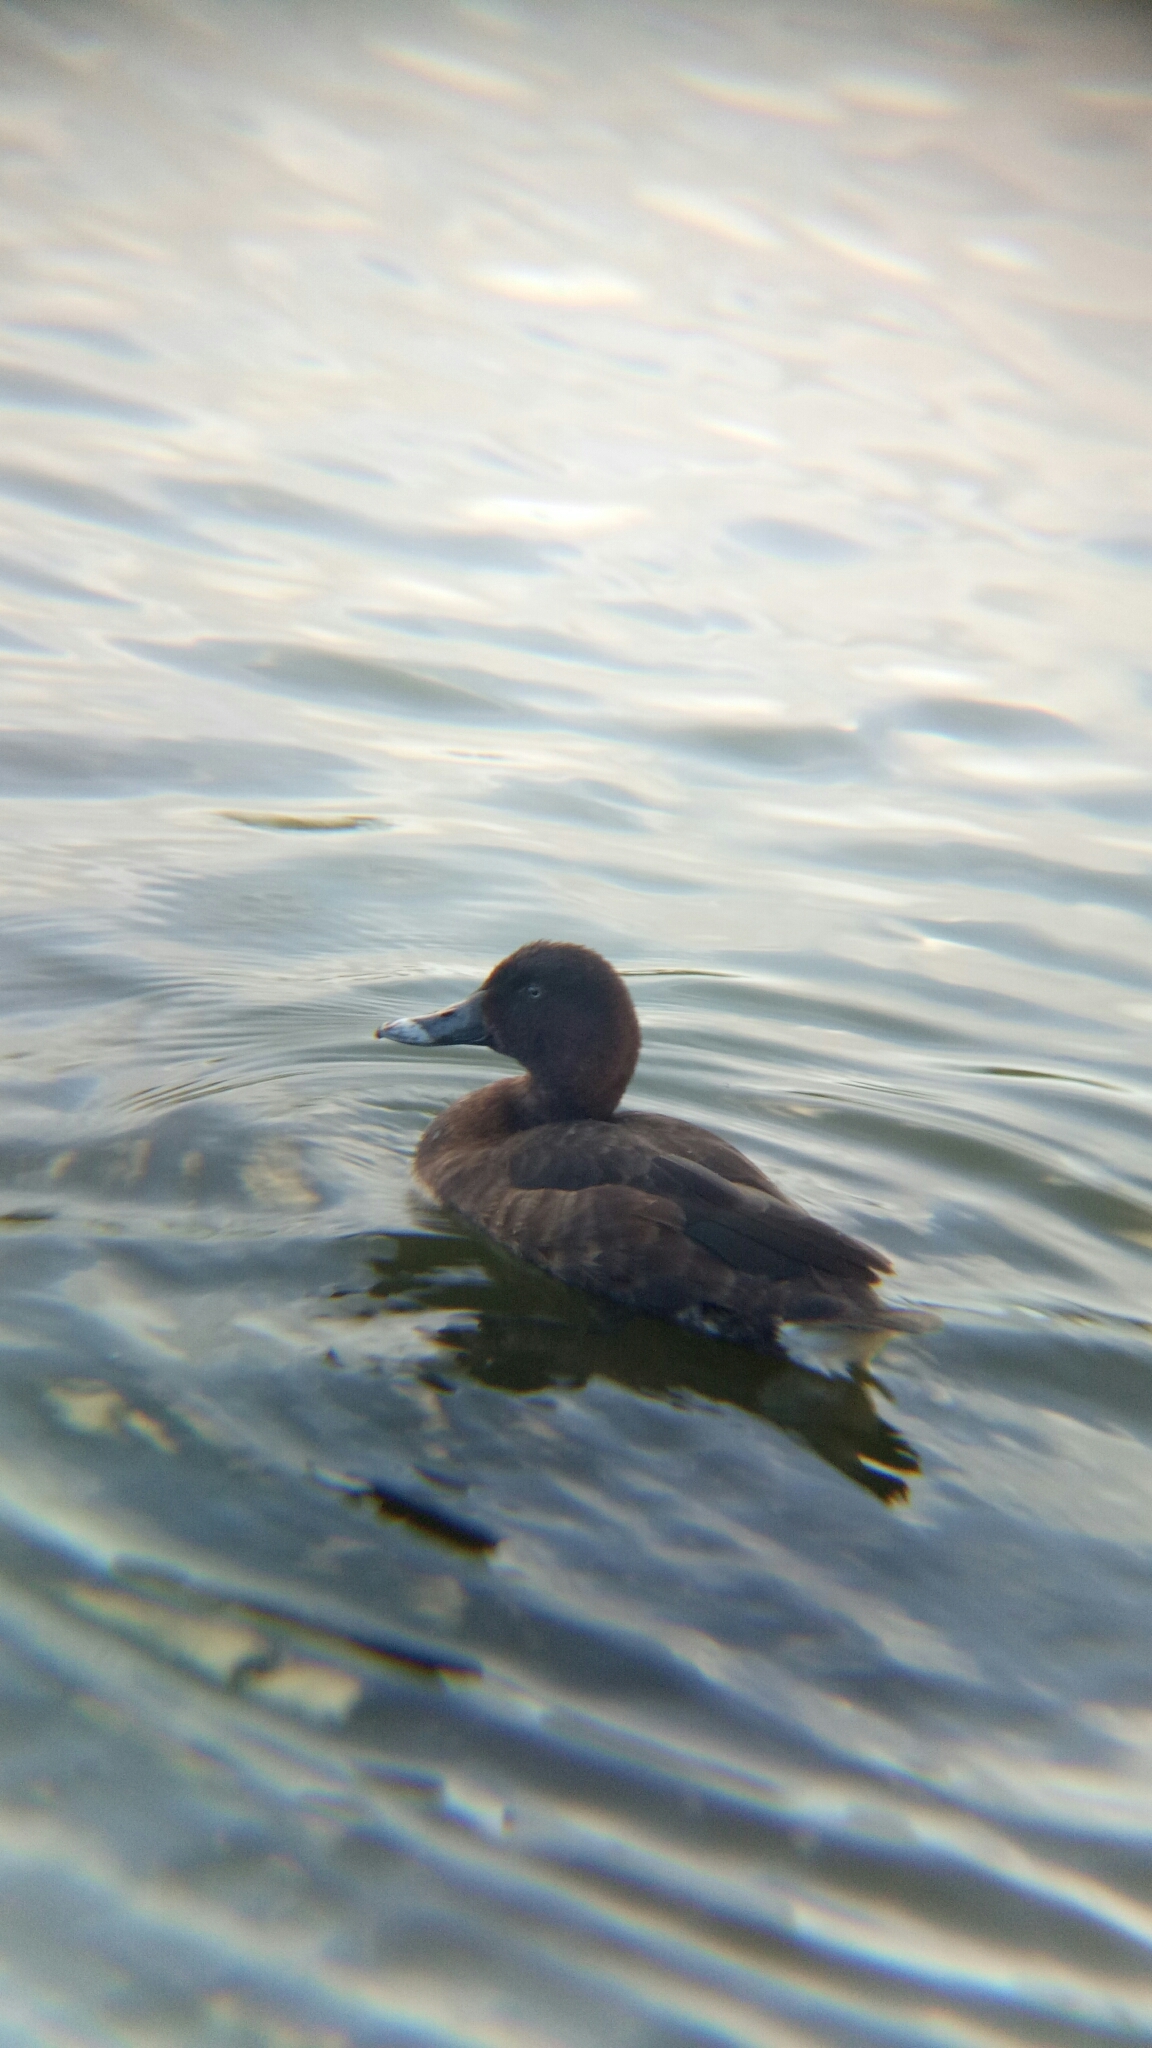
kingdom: Animalia
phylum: Chordata
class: Aves
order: Anseriformes
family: Anatidae
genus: Aythya
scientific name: Aythya australis
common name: Hardhead
